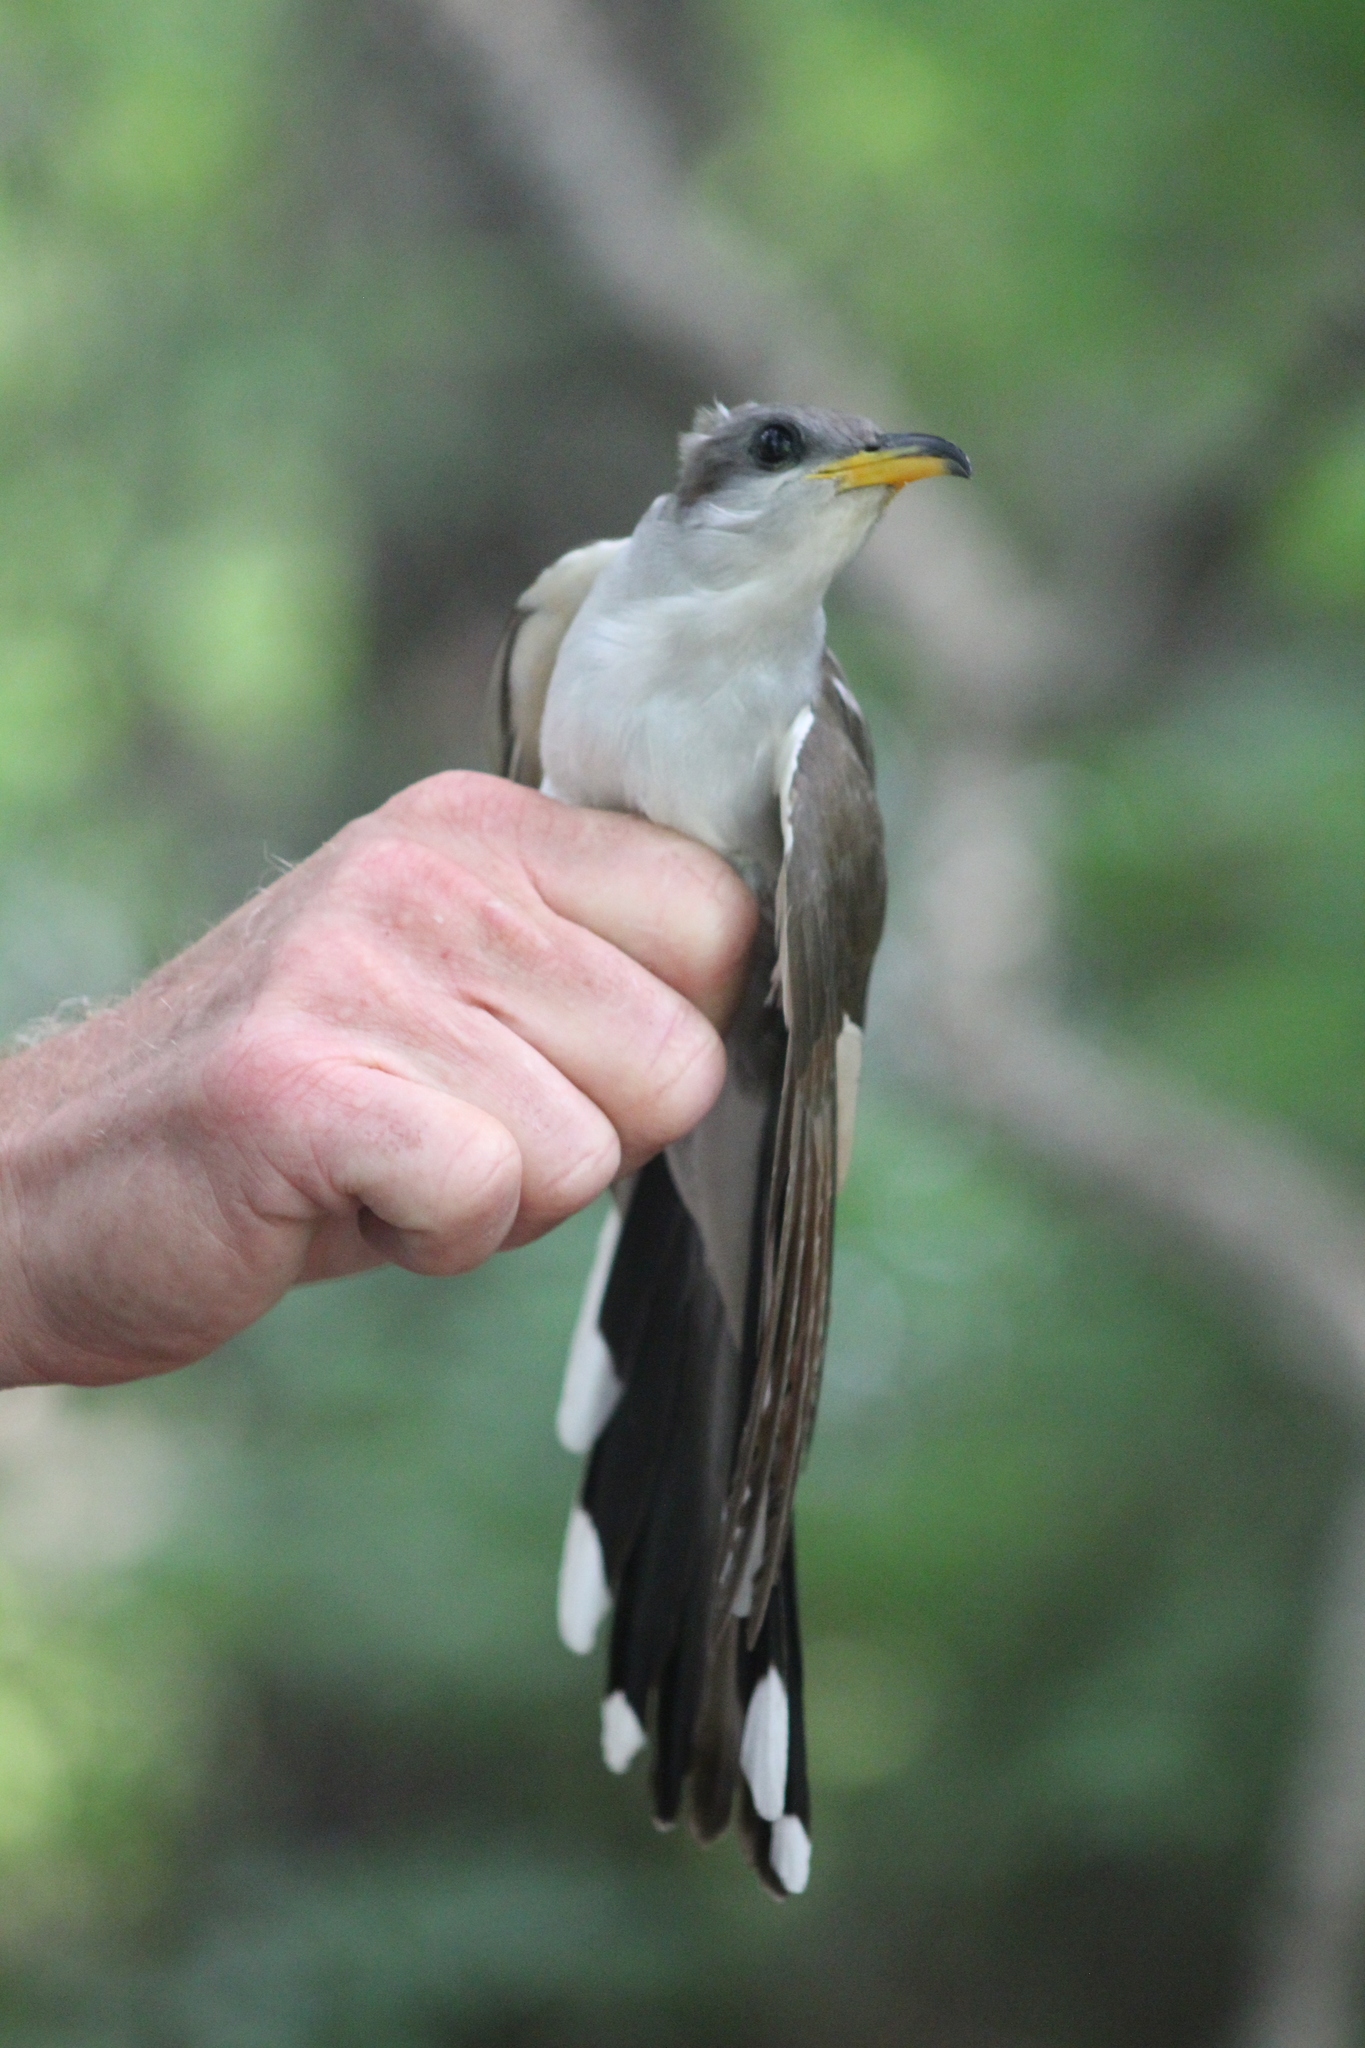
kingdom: Animalia
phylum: Chordata
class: Aves
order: Cuculiformes
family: Cuculidae
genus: Coccyzus
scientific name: Coccyzus americanus
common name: Yellow-billed cuckoo
